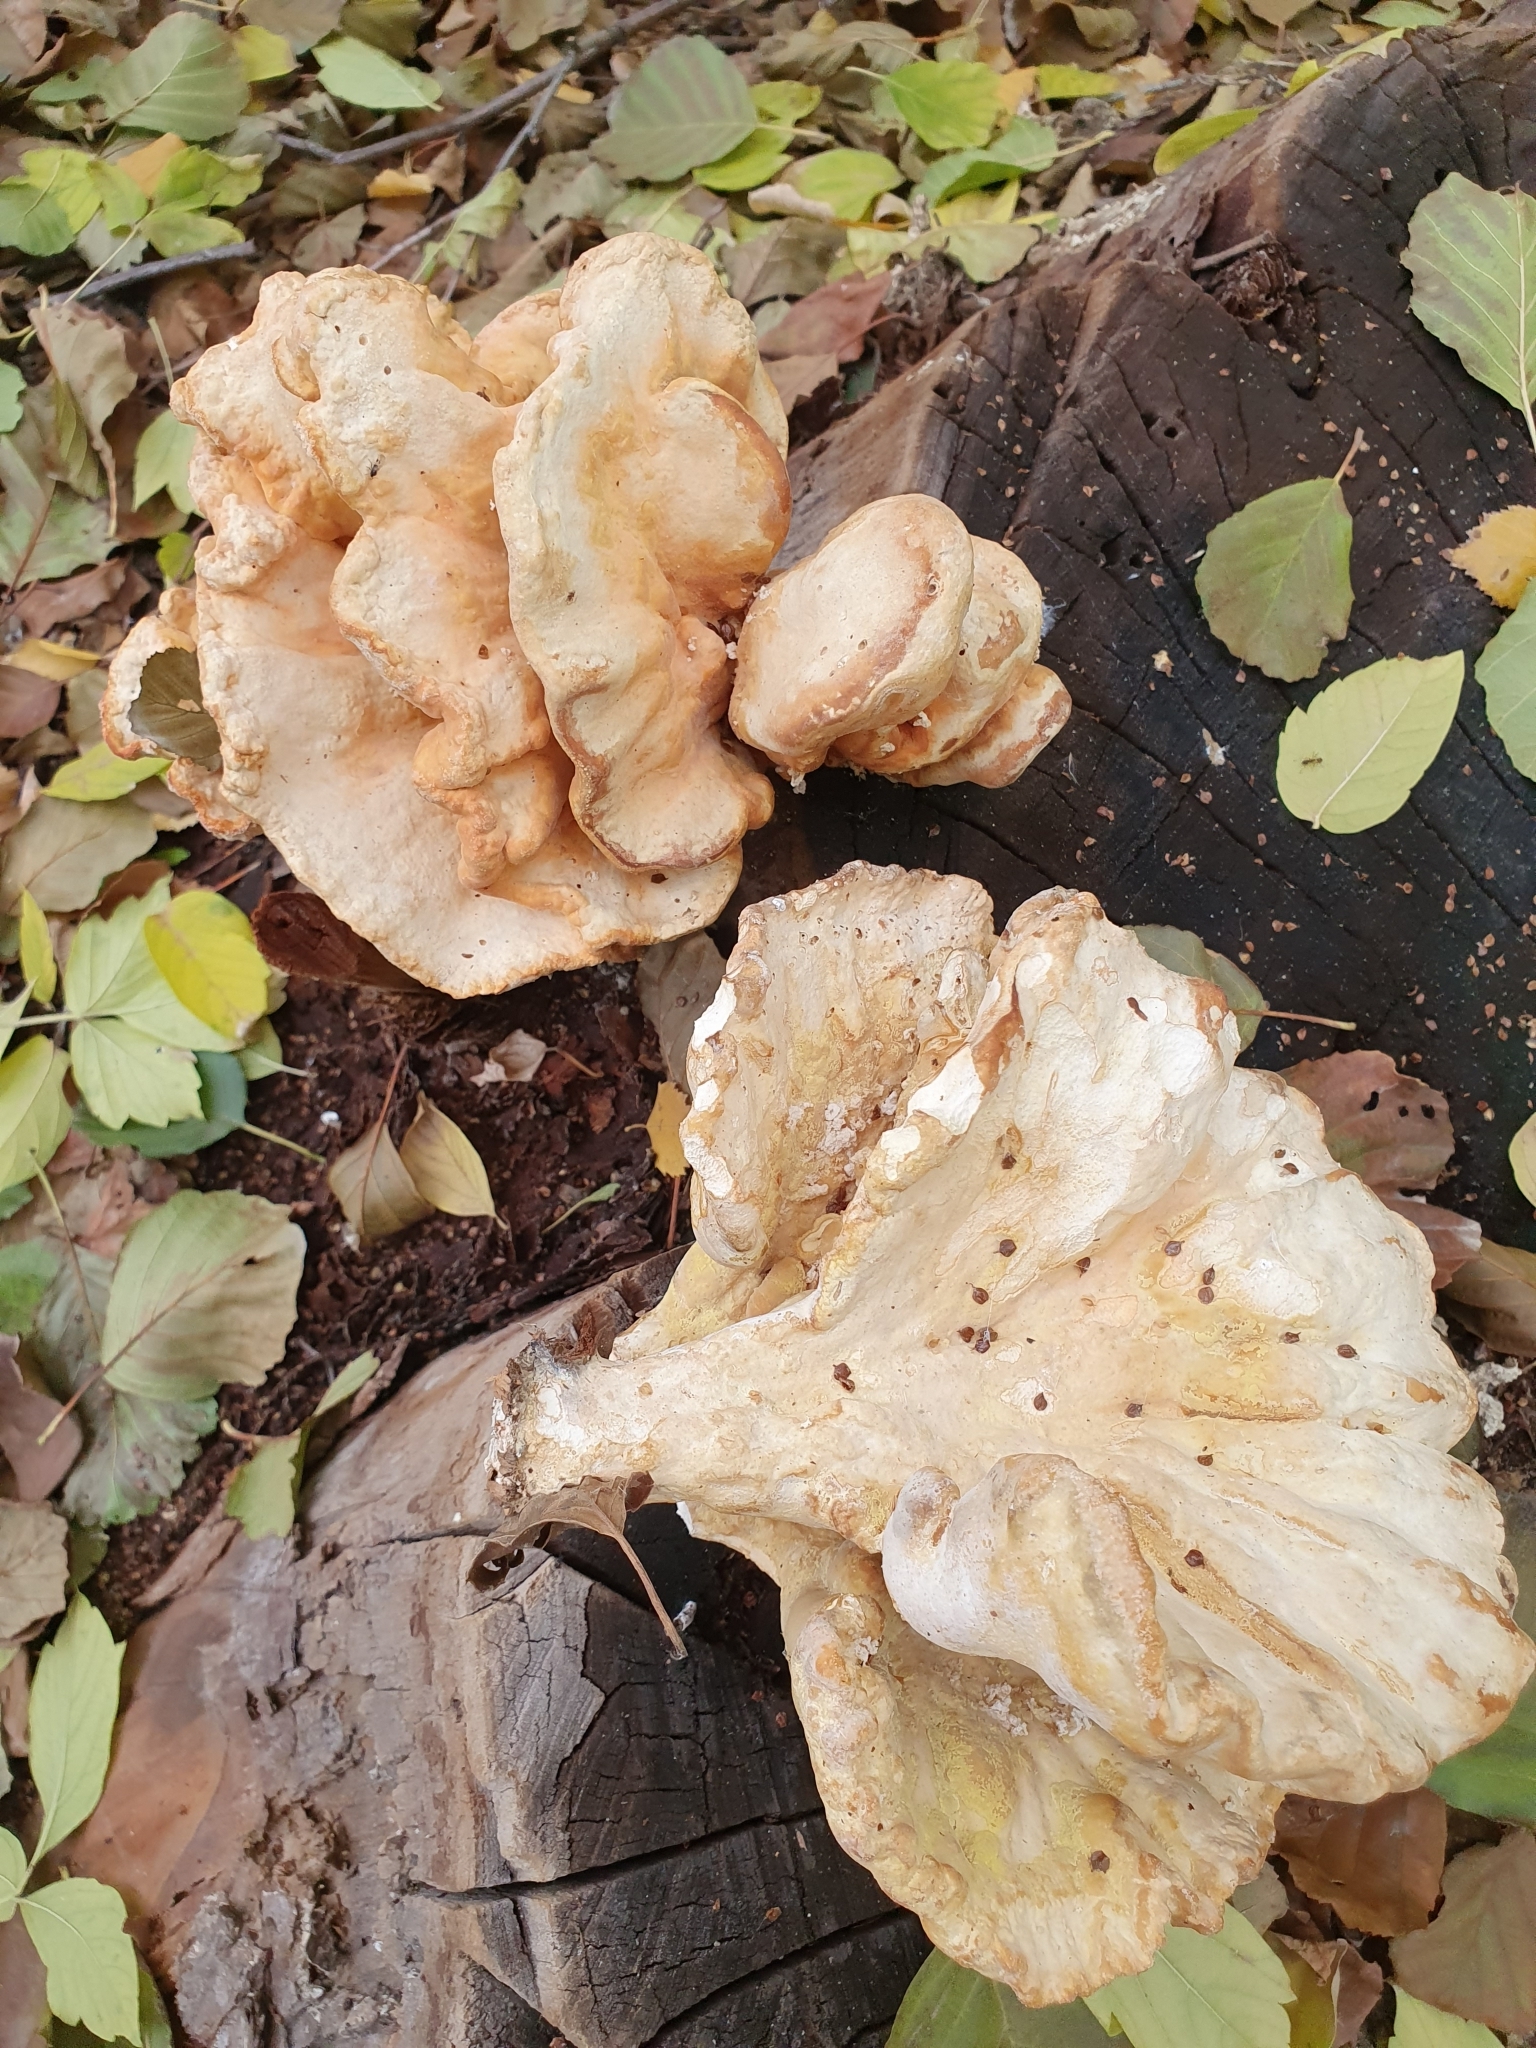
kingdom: Fungi
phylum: Basidiomycota
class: Agaricomycetes
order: Polyporales
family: Laetiporaceae
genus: Laetiporus
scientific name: Laetiporus sulphureus
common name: Chicken of the woods
